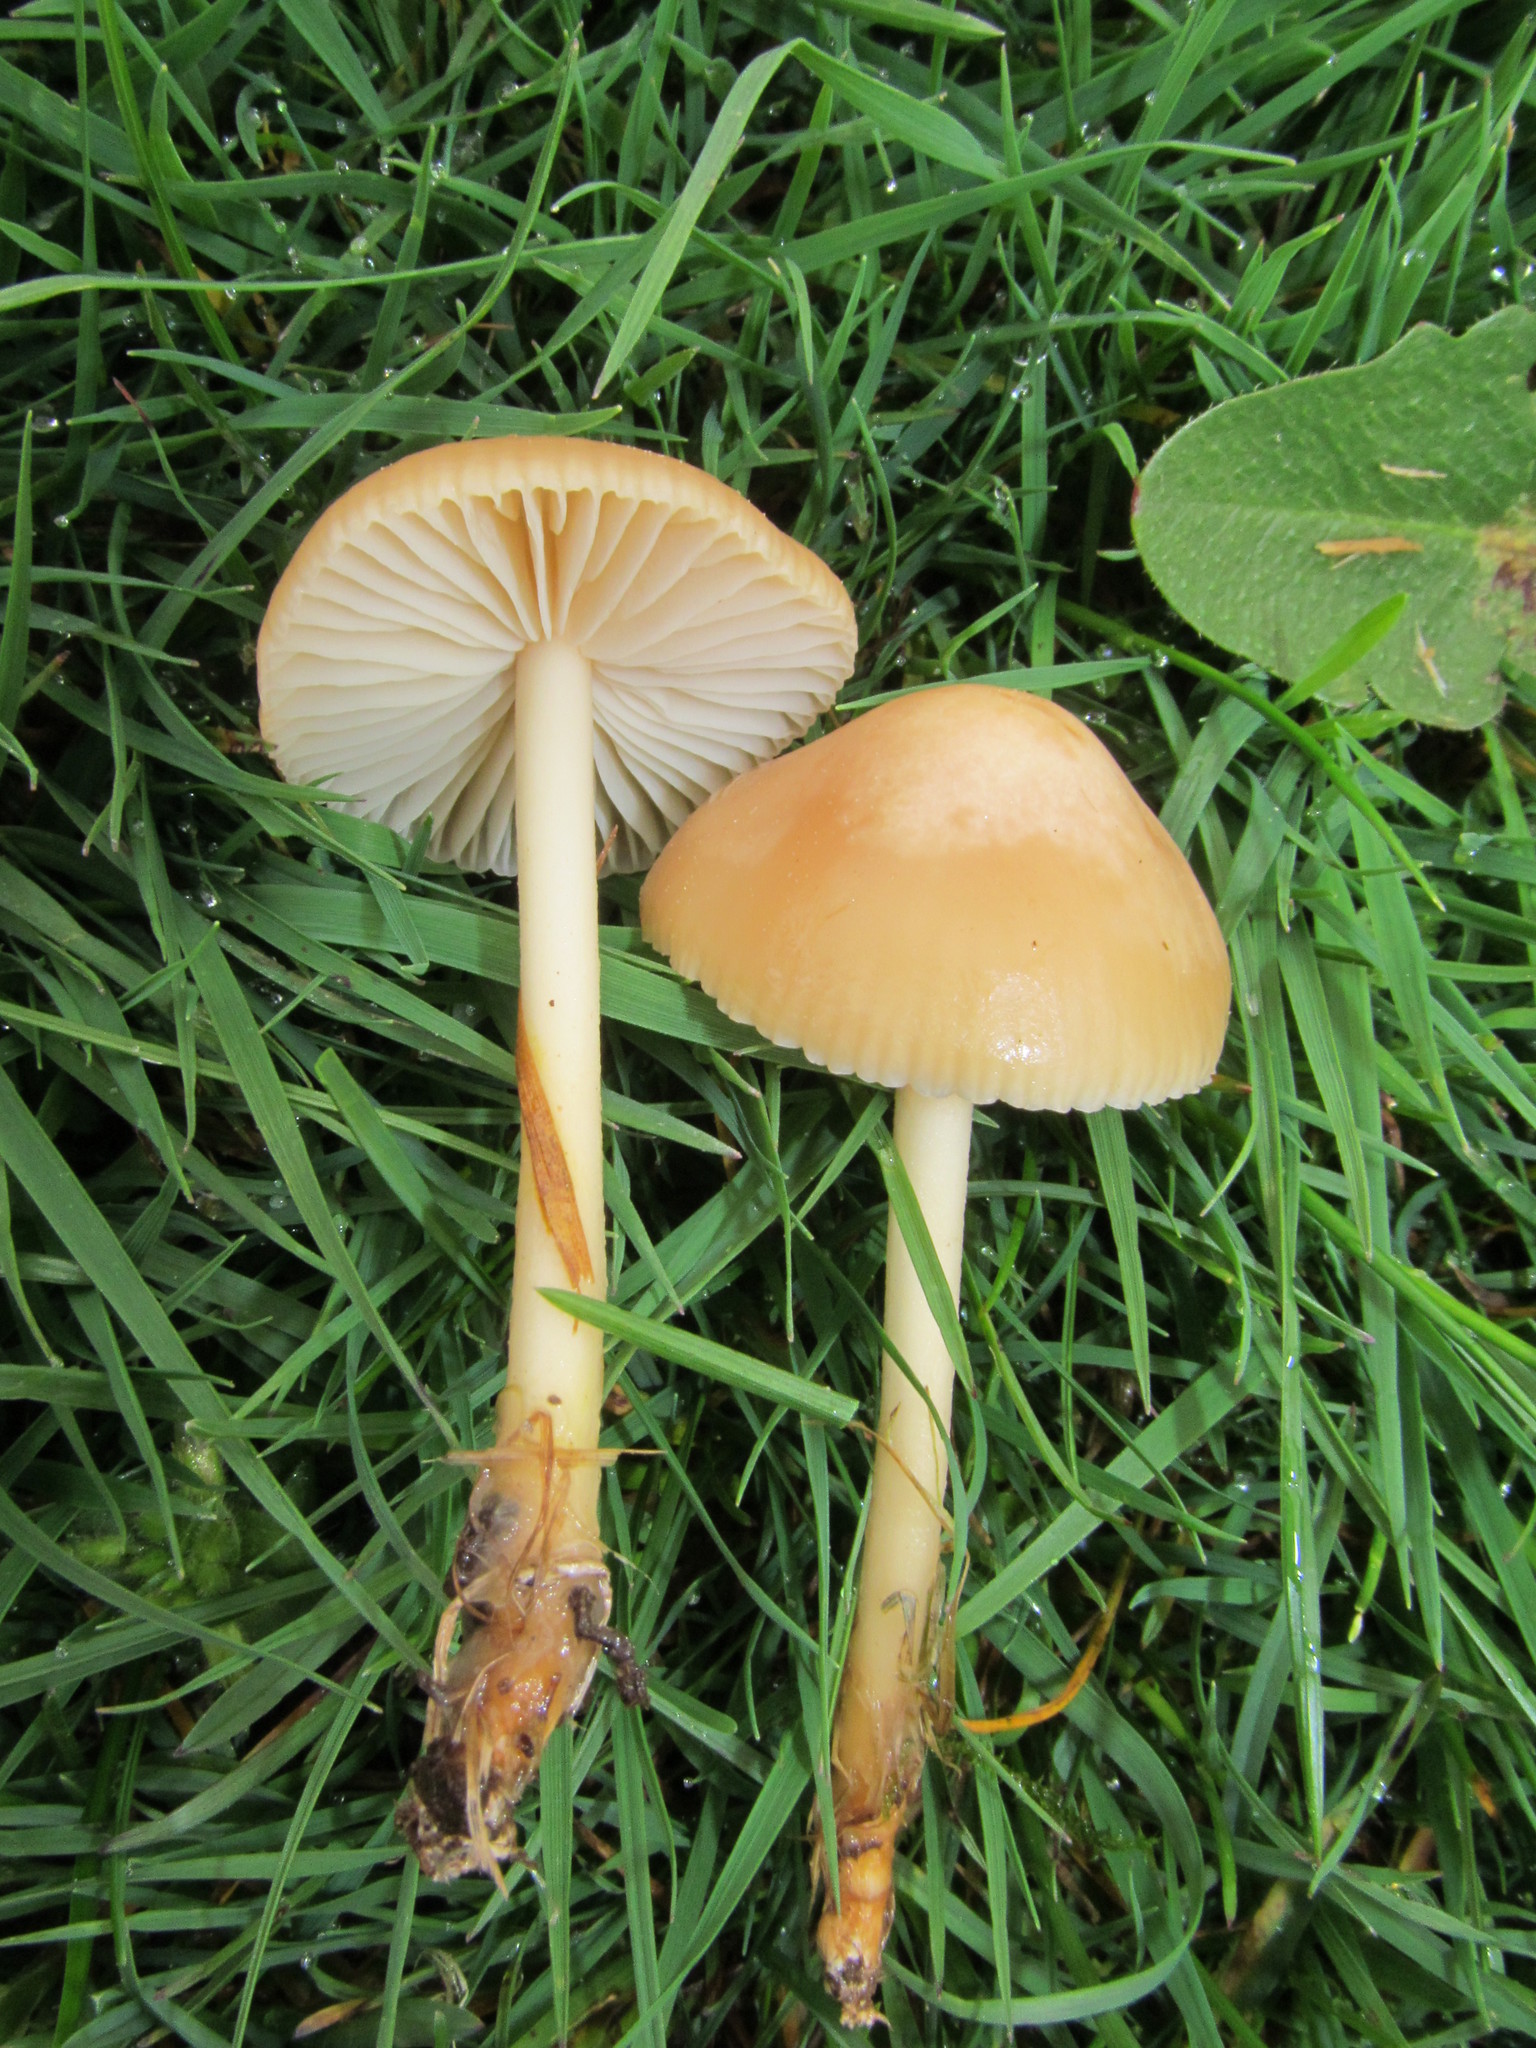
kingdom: Fungi
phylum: Basidiomycota
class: Agaricomycetes
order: Agaricales
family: Marasmiaceae
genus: Marasmius
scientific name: Marasmius oreades
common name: Fairy ring champignon
